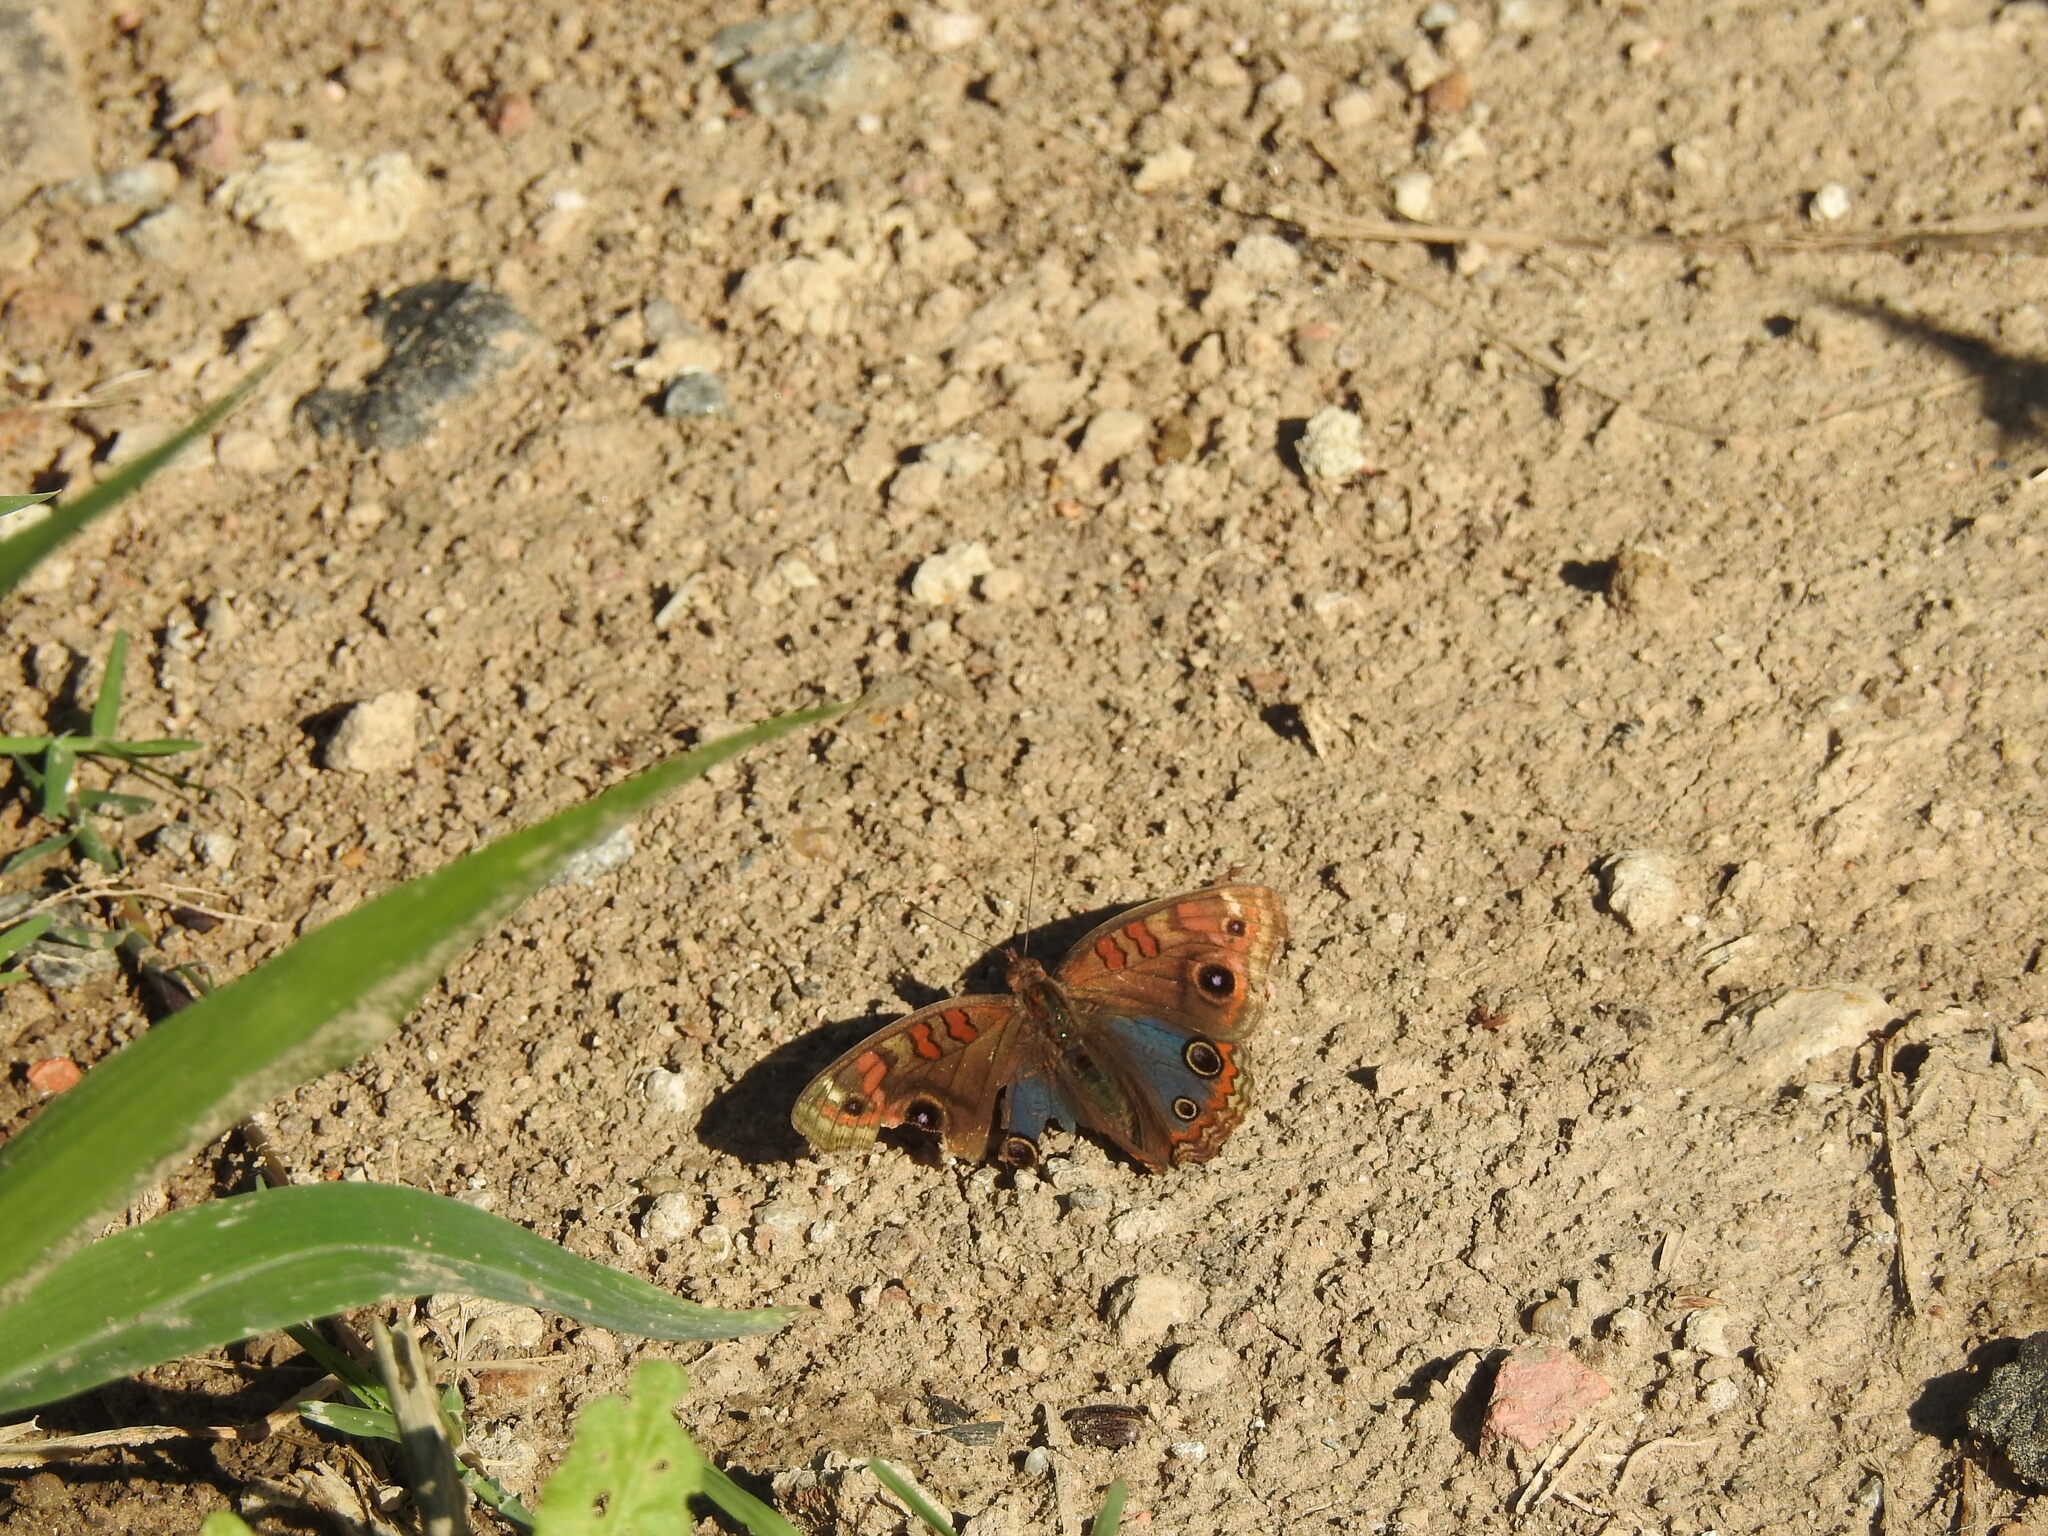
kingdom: Animalia
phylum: Arthropoda
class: Insecta
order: Lepidoptera
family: Nymphalidae
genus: Junonia
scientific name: Junonia lavinia
